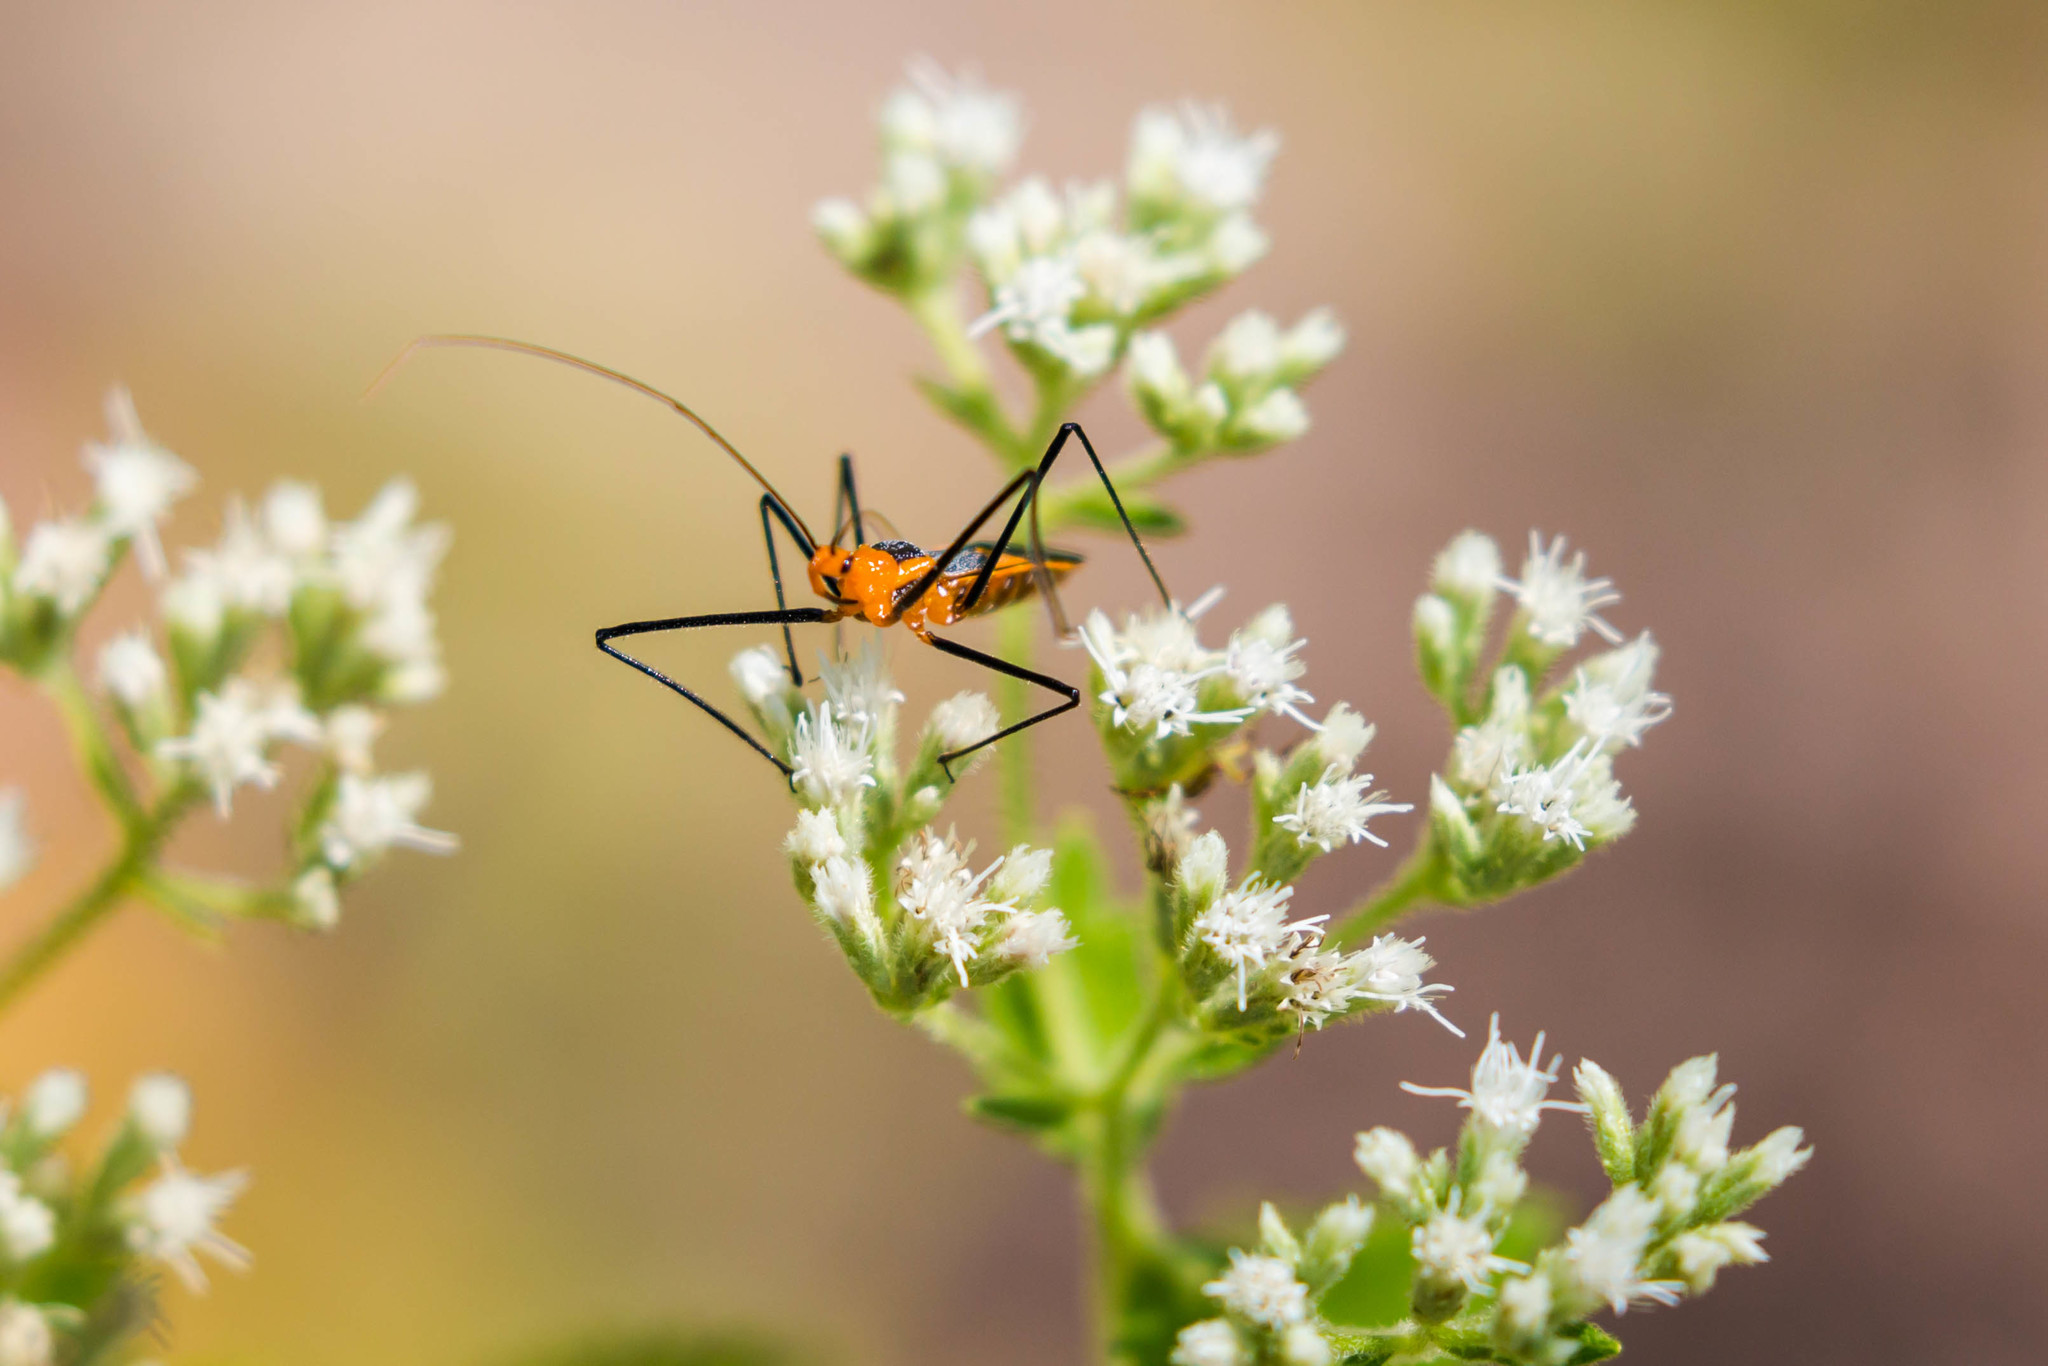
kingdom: Animalia
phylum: Arthropoda
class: Insecta
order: Hemiptera
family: Reduviidae
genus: Zelus
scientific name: Zelus longipes
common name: Milkweed assassin bug
